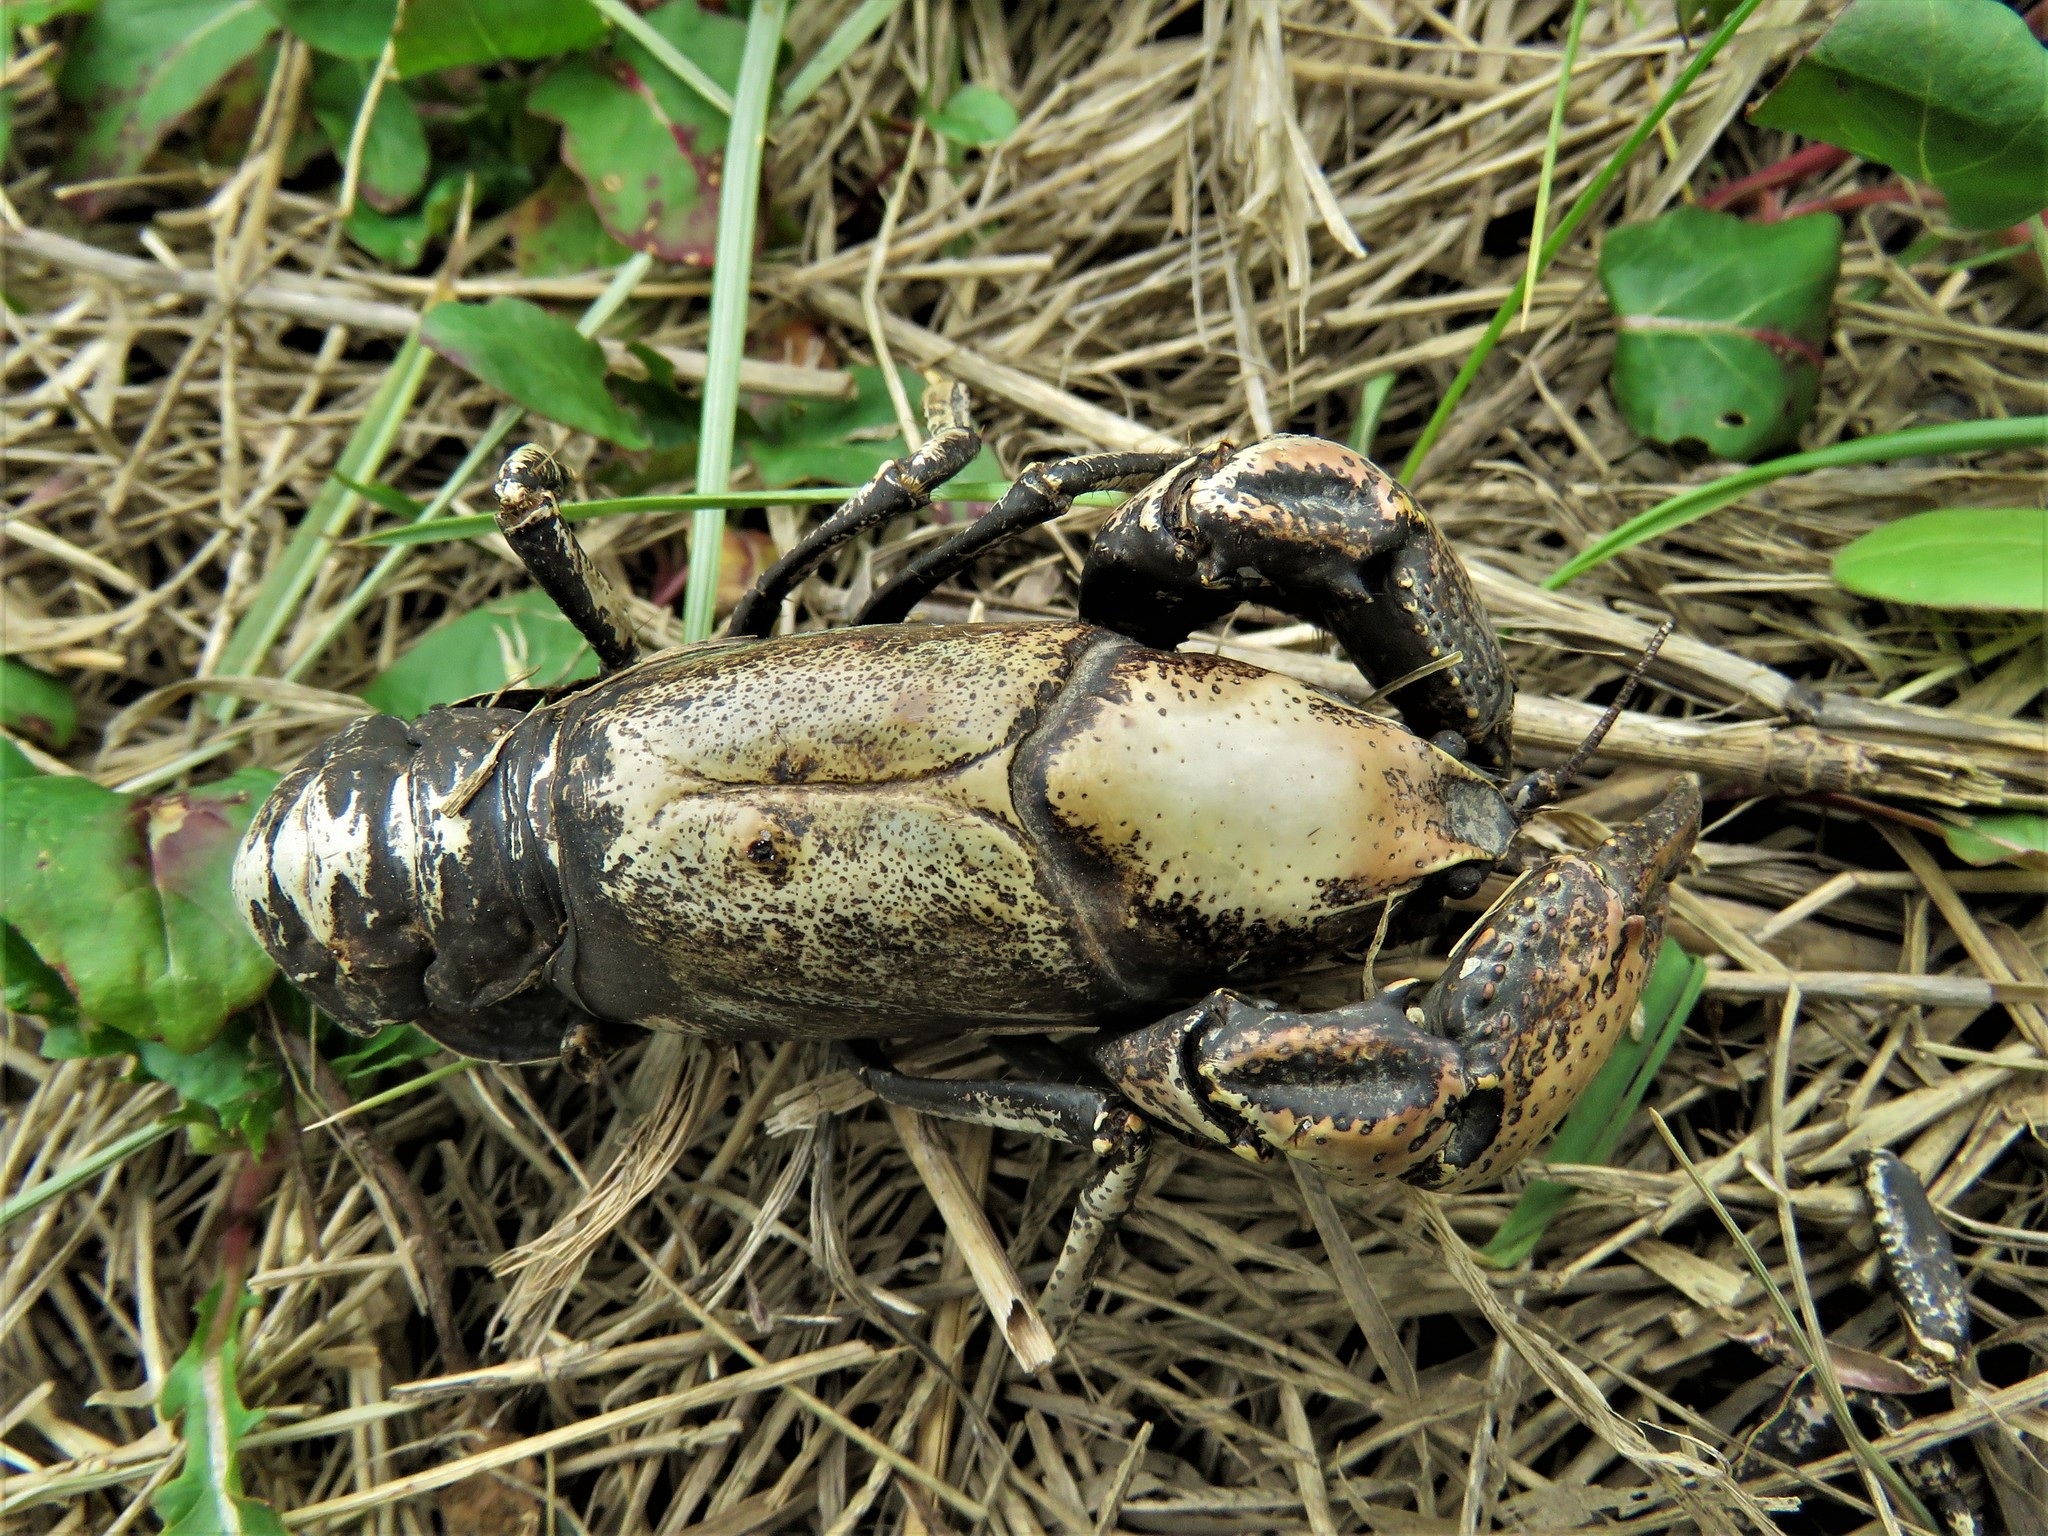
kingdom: Animalia
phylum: Arthropoda
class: Malacostraca
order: Decapoda
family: Cambaridae
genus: Procambarus
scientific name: Procambarus steigmani
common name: Parkhill prairie crayfish
